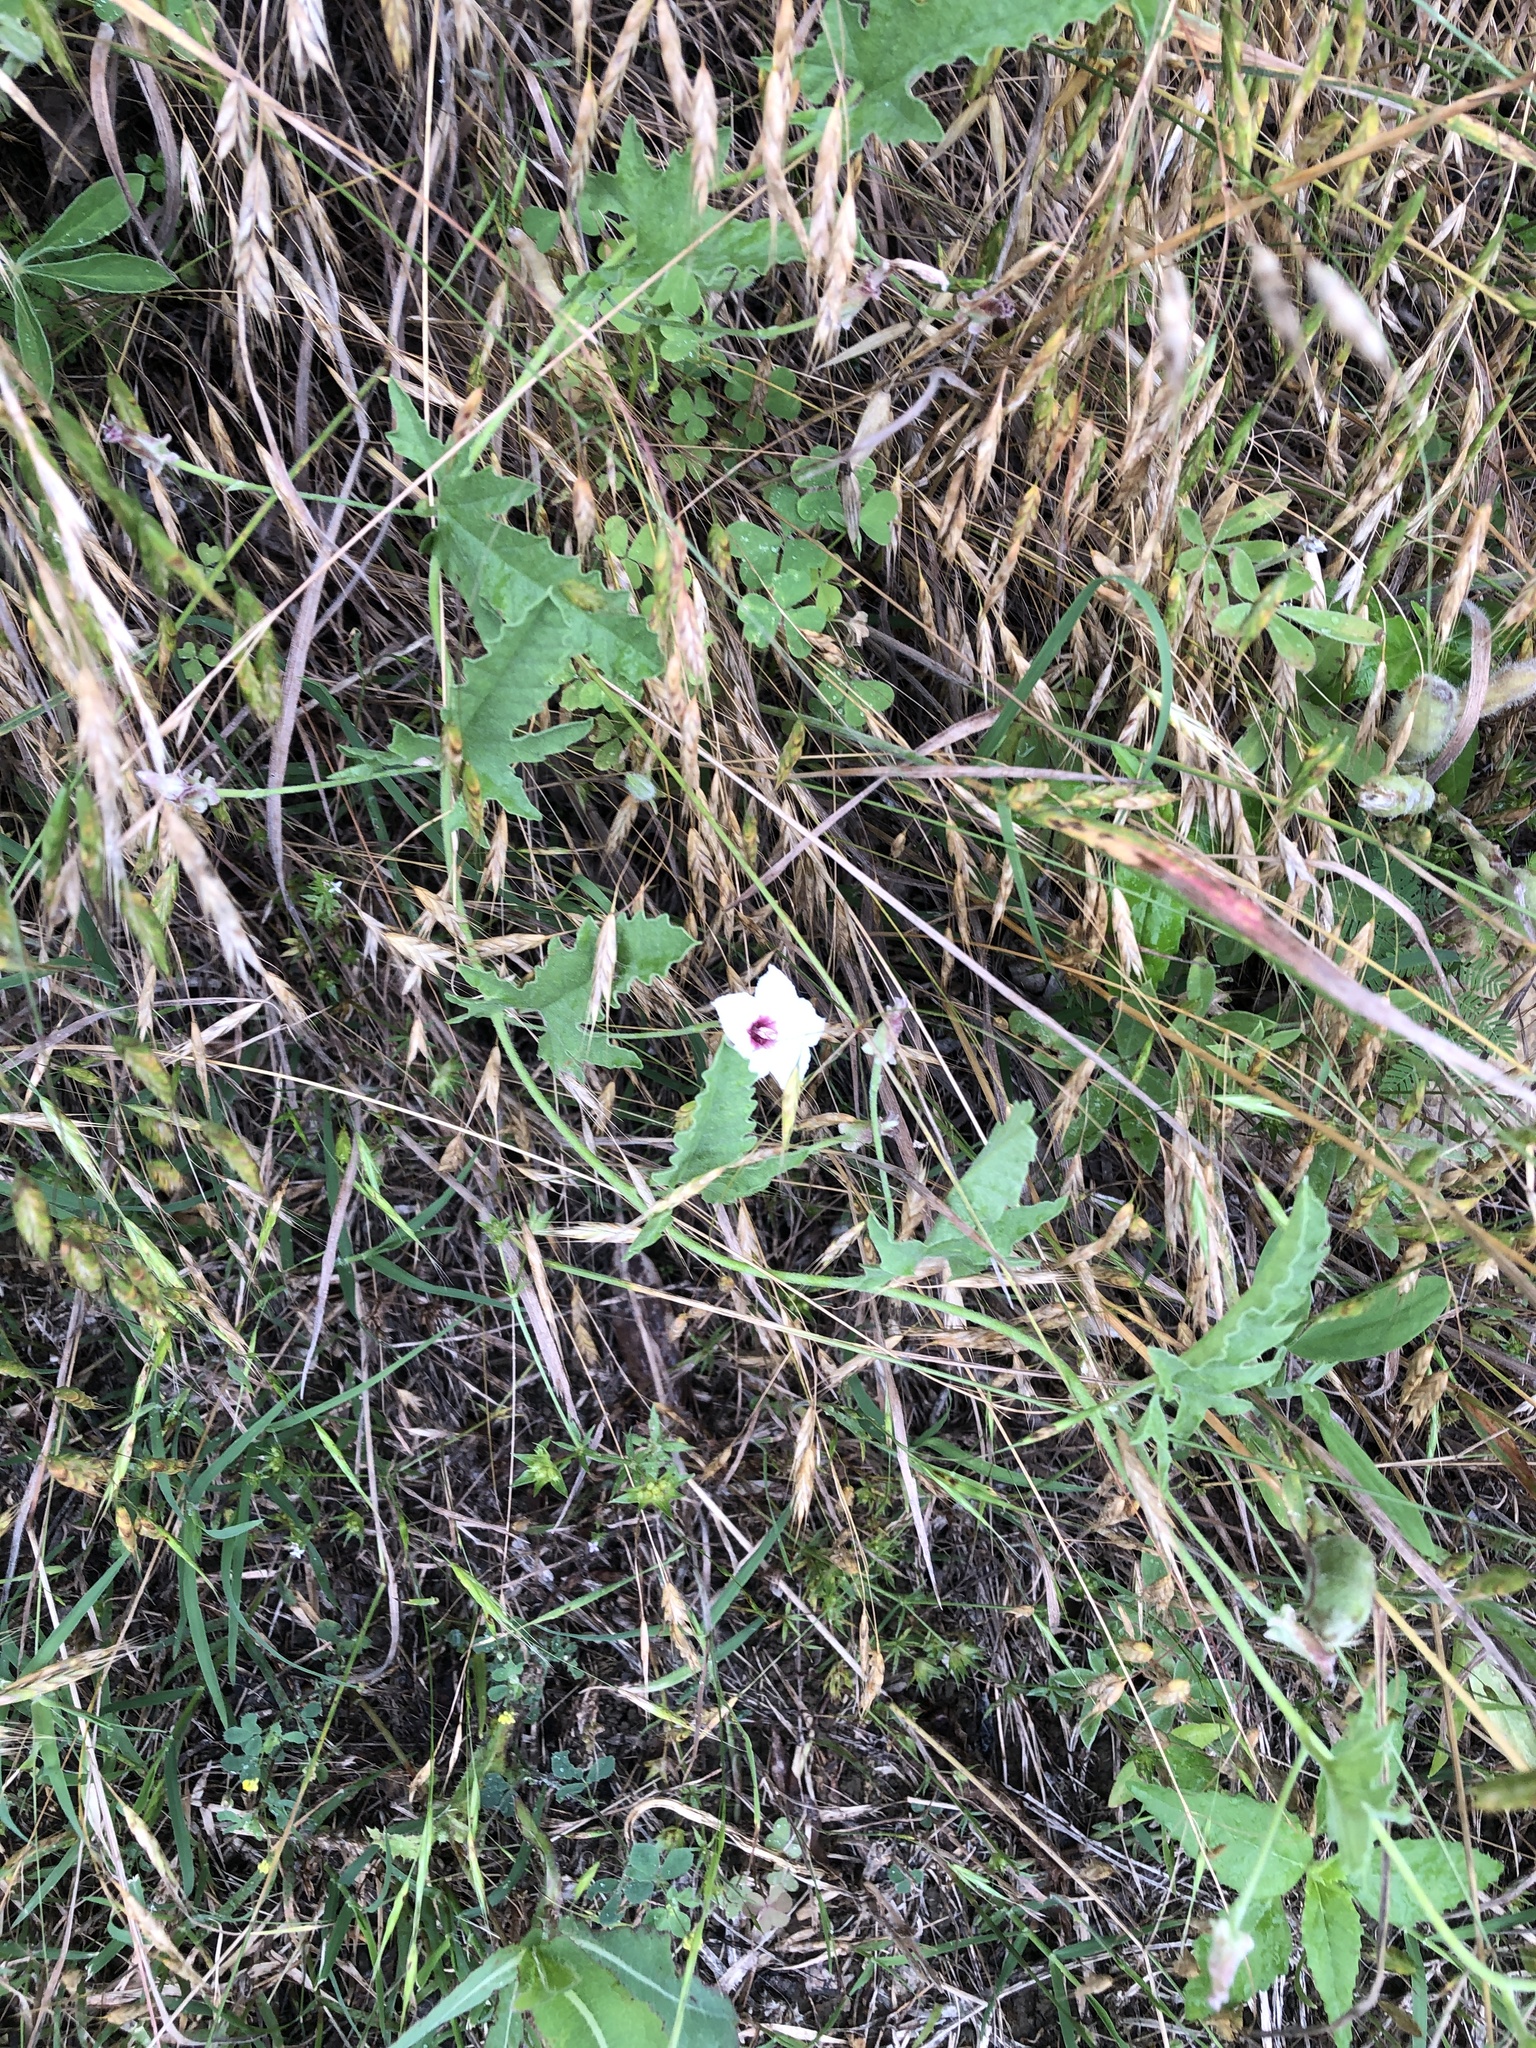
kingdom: Plantae
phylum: Tracheophyta
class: Magnoliopsida
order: Solanales
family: Convolvulaceae
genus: Convolvulus
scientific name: Convolvulus equitans
